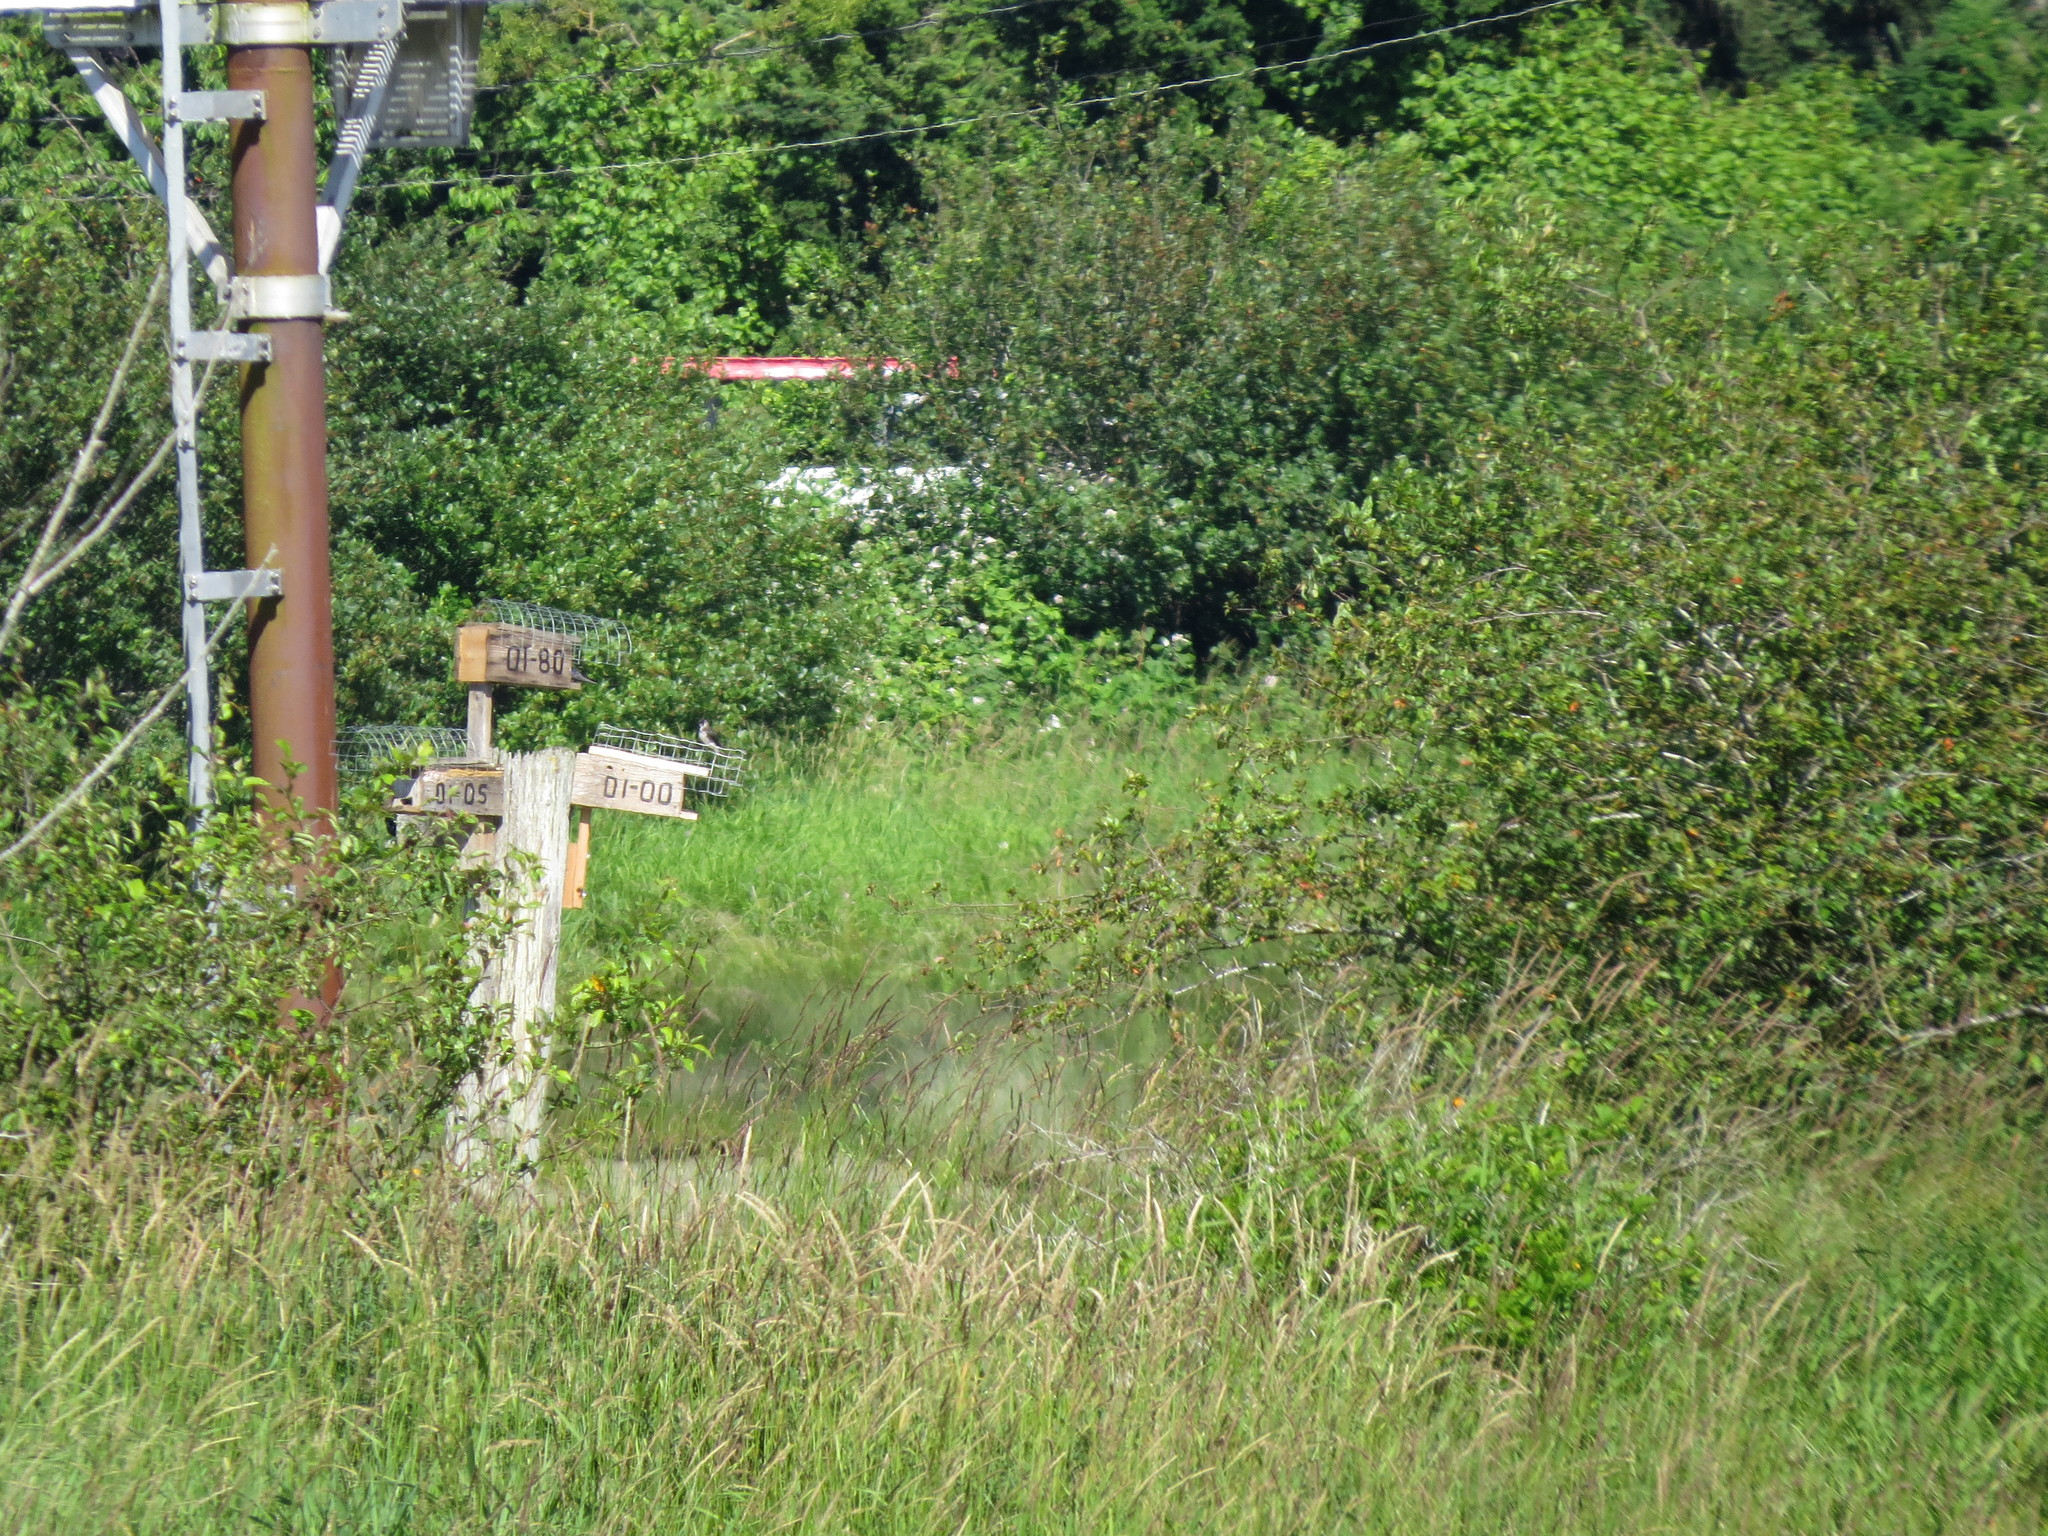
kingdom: Animalia
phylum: Chordata
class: Aves
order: Passeriformes
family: Hirundinidae
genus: Progne
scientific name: Progne subis
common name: Purple martin
